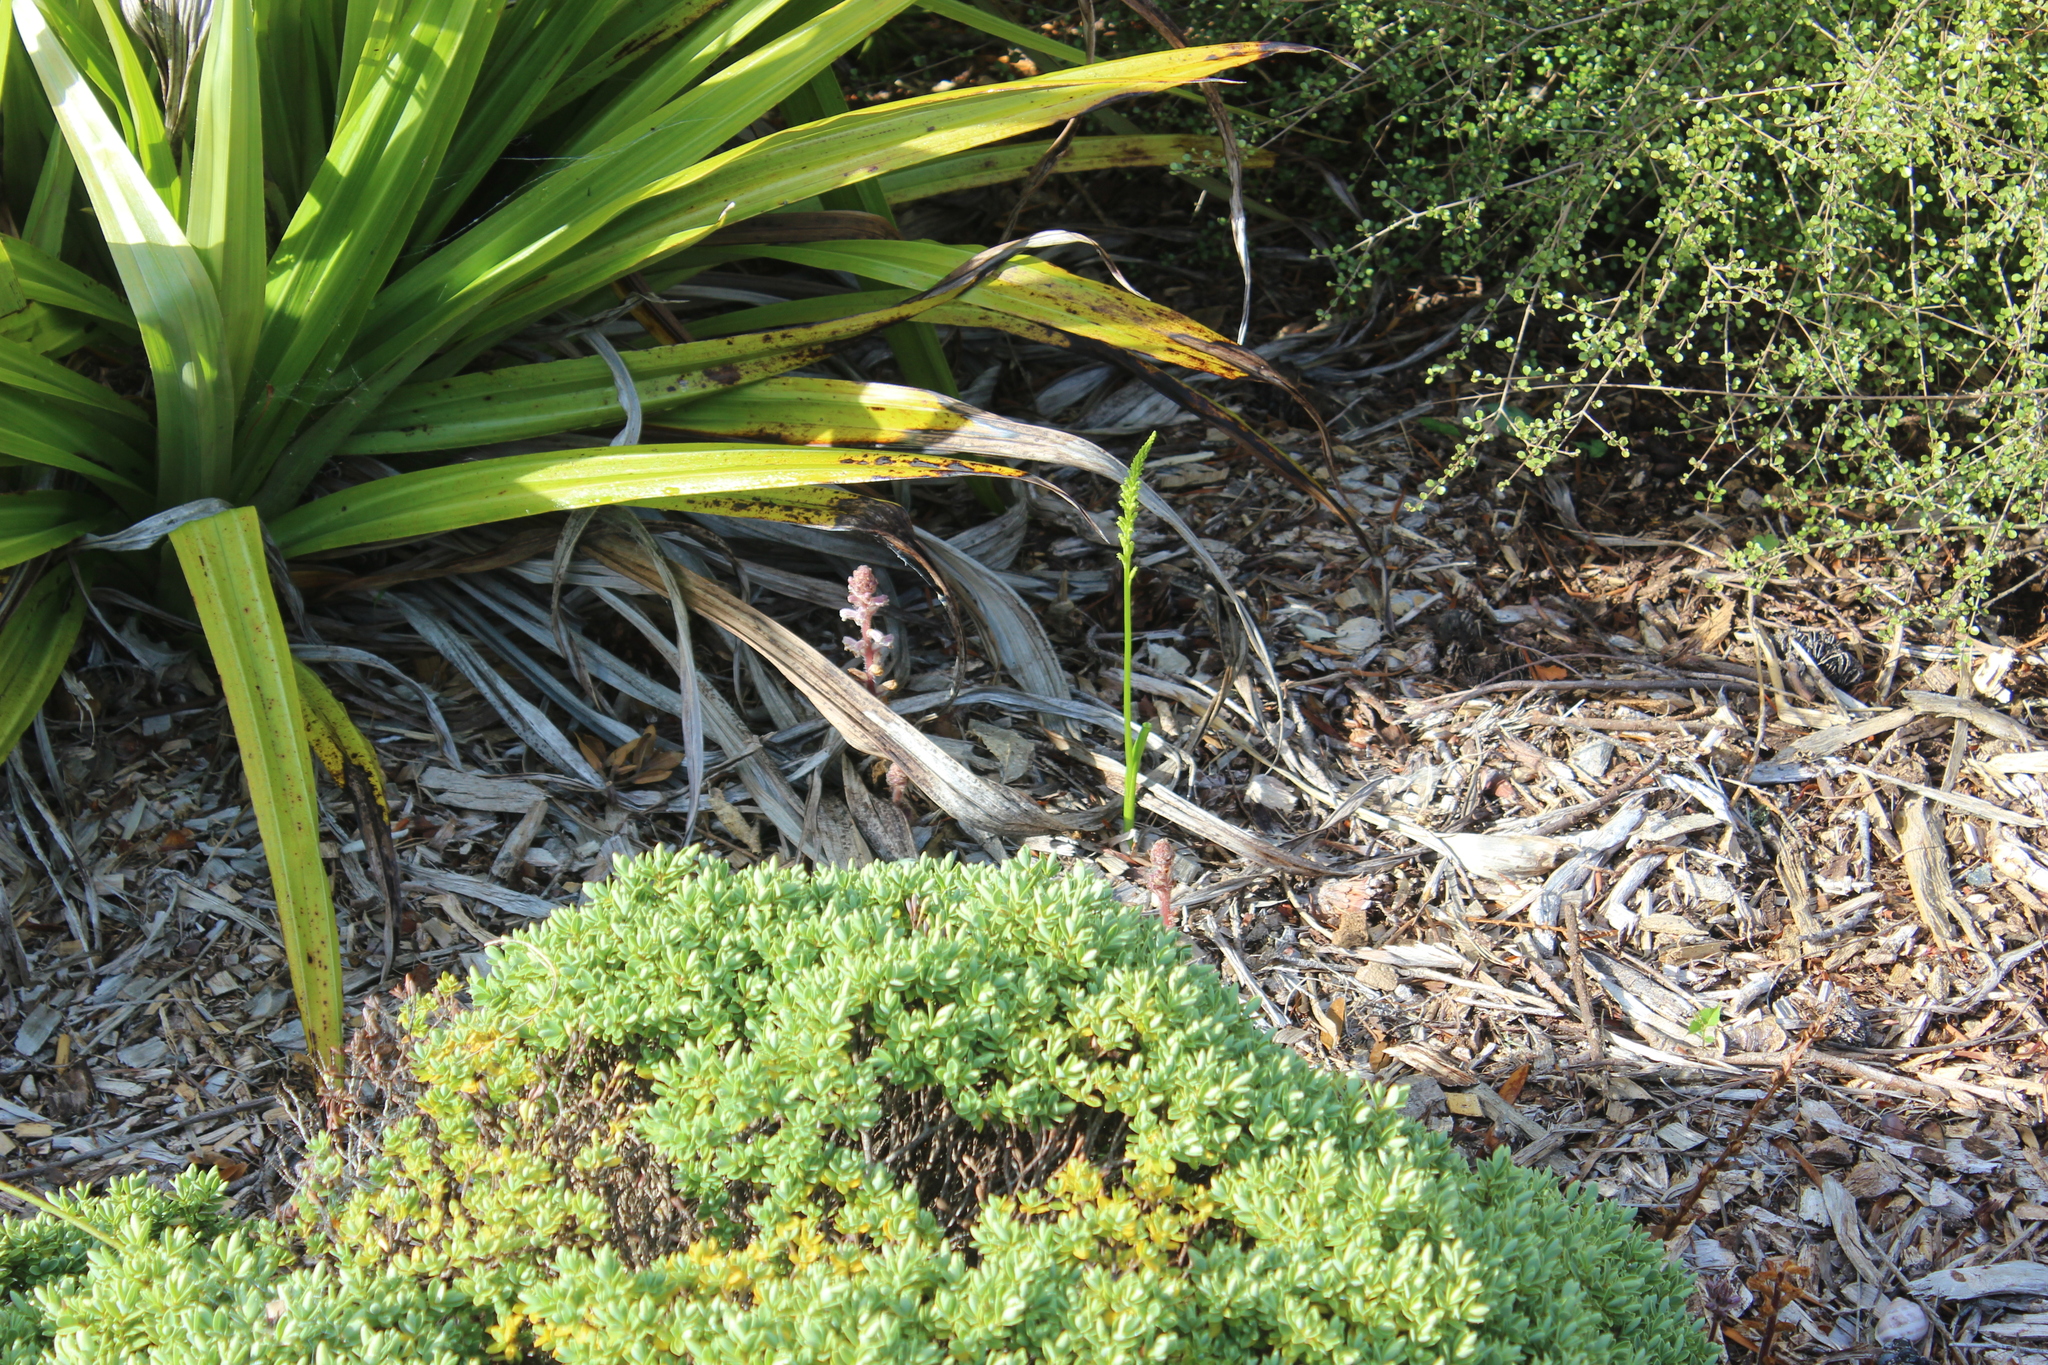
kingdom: Plantae
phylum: Tracheophyta
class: Liliopsida
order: Asparagales
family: Orchidaceae
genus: Microtis
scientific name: Microtis unifolia
